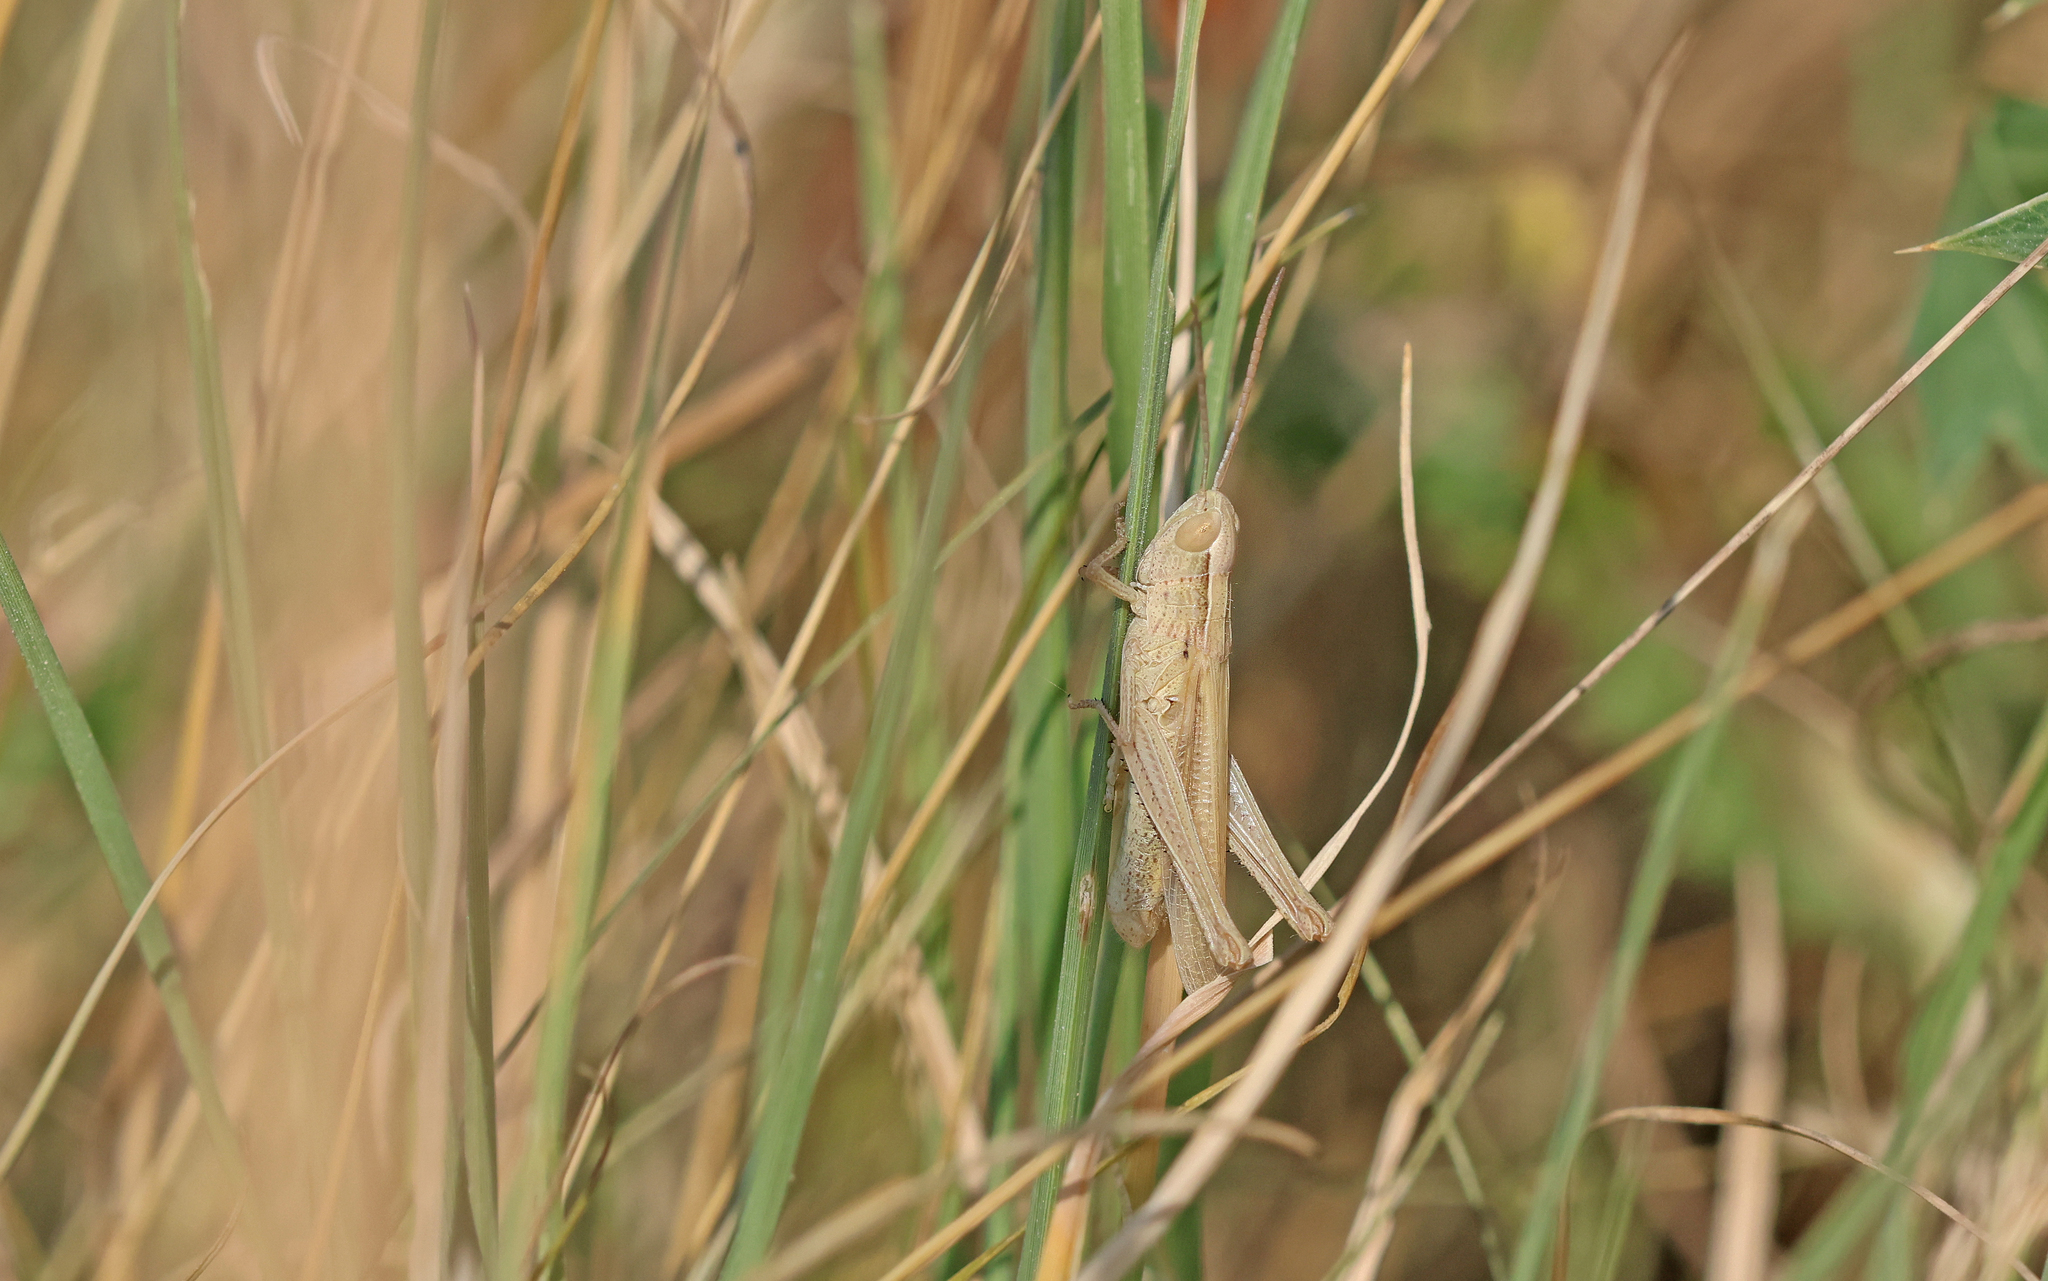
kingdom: Animalia
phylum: Arthropoda
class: Insecta
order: Orthoptera
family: Acrididae
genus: Chorthippus
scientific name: Chorthippus dichrous
